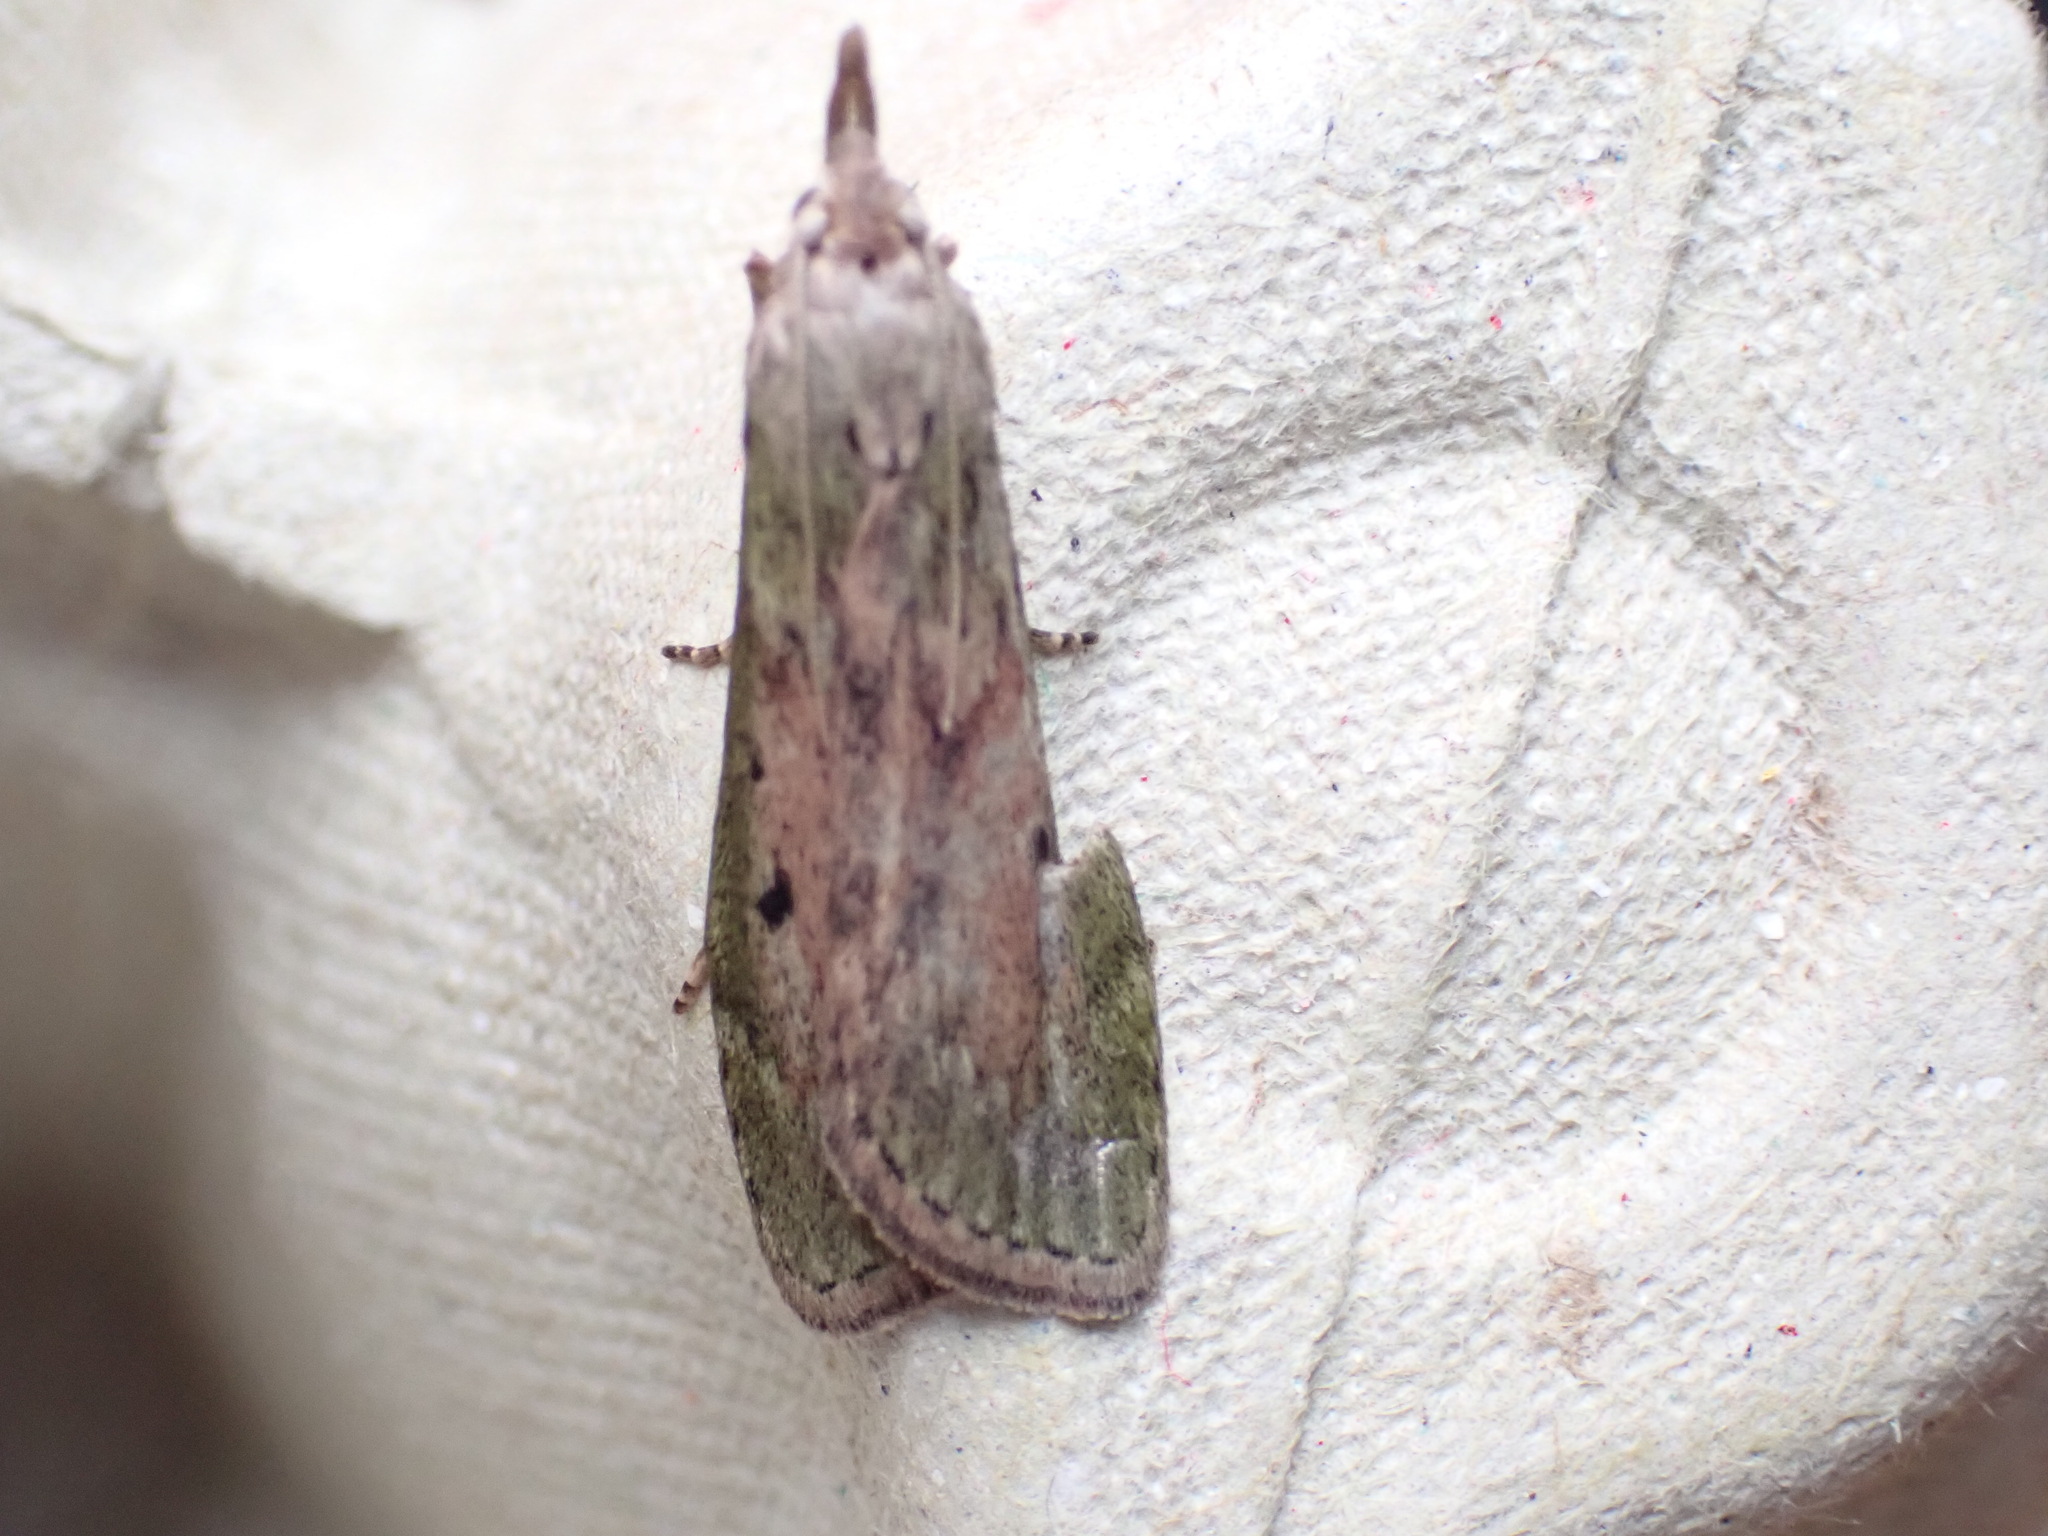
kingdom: Animalia
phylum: Arthropoda
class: Insecta
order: Lepidoptera
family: Pyralidae
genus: Aphomia
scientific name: Aphomia sociella
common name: Bee moth
